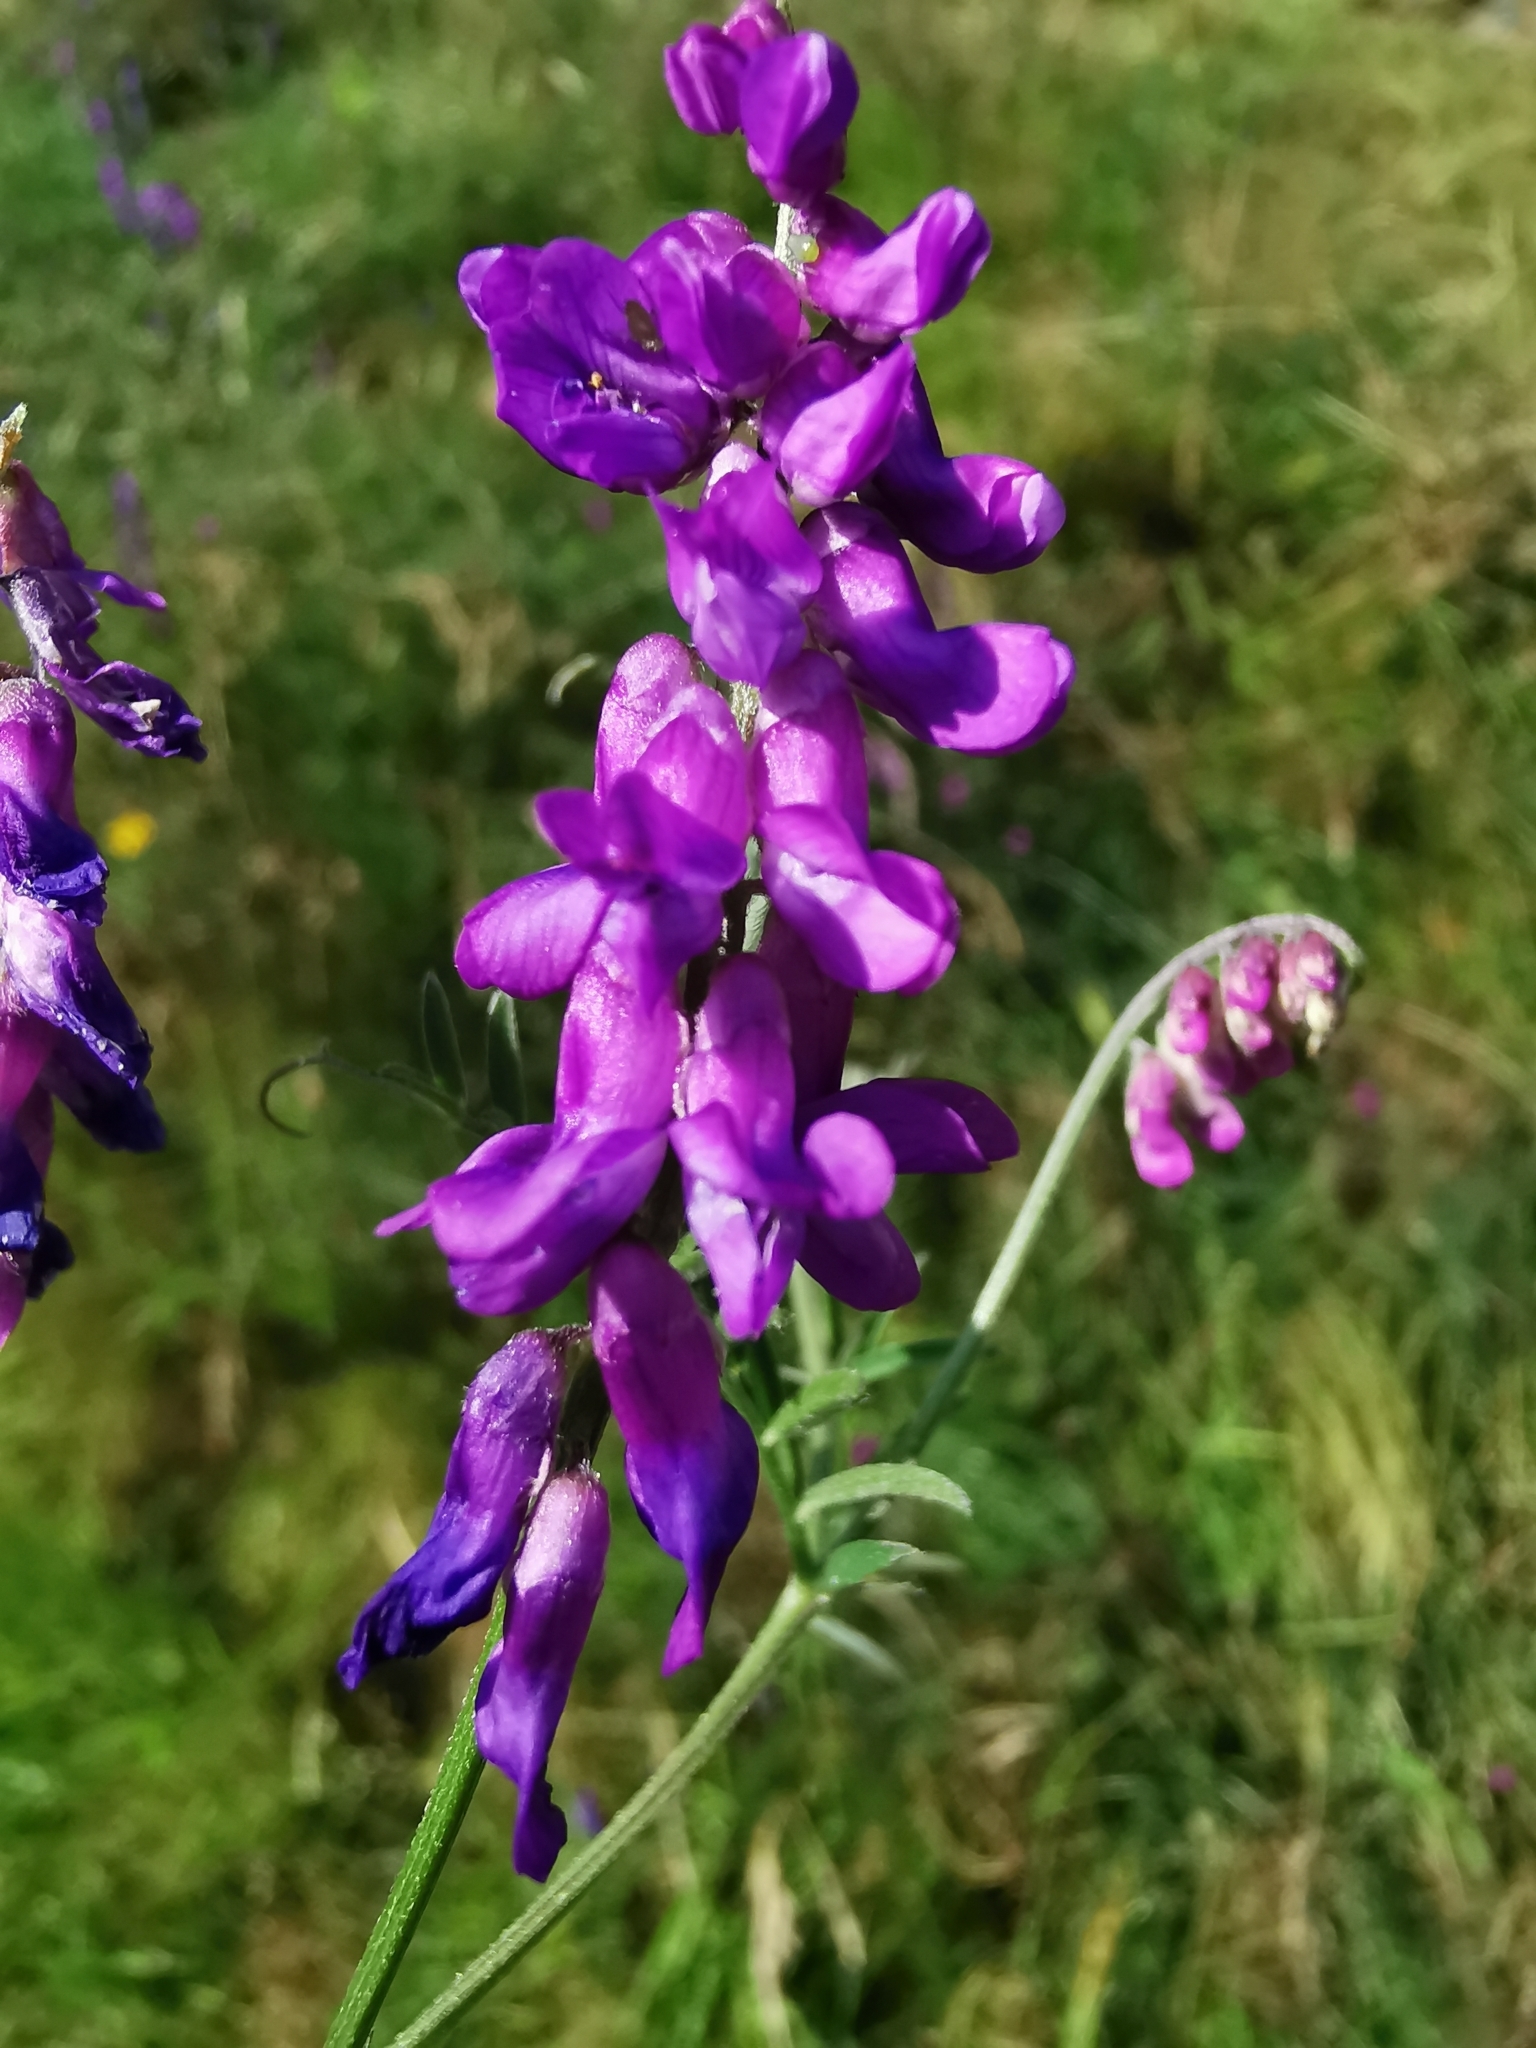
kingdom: Plantae
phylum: Tracheophyta
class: Magnoliopsida
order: Fabales
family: Fabaceae
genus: Vicia
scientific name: Vicia cracca
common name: Bird vetch
